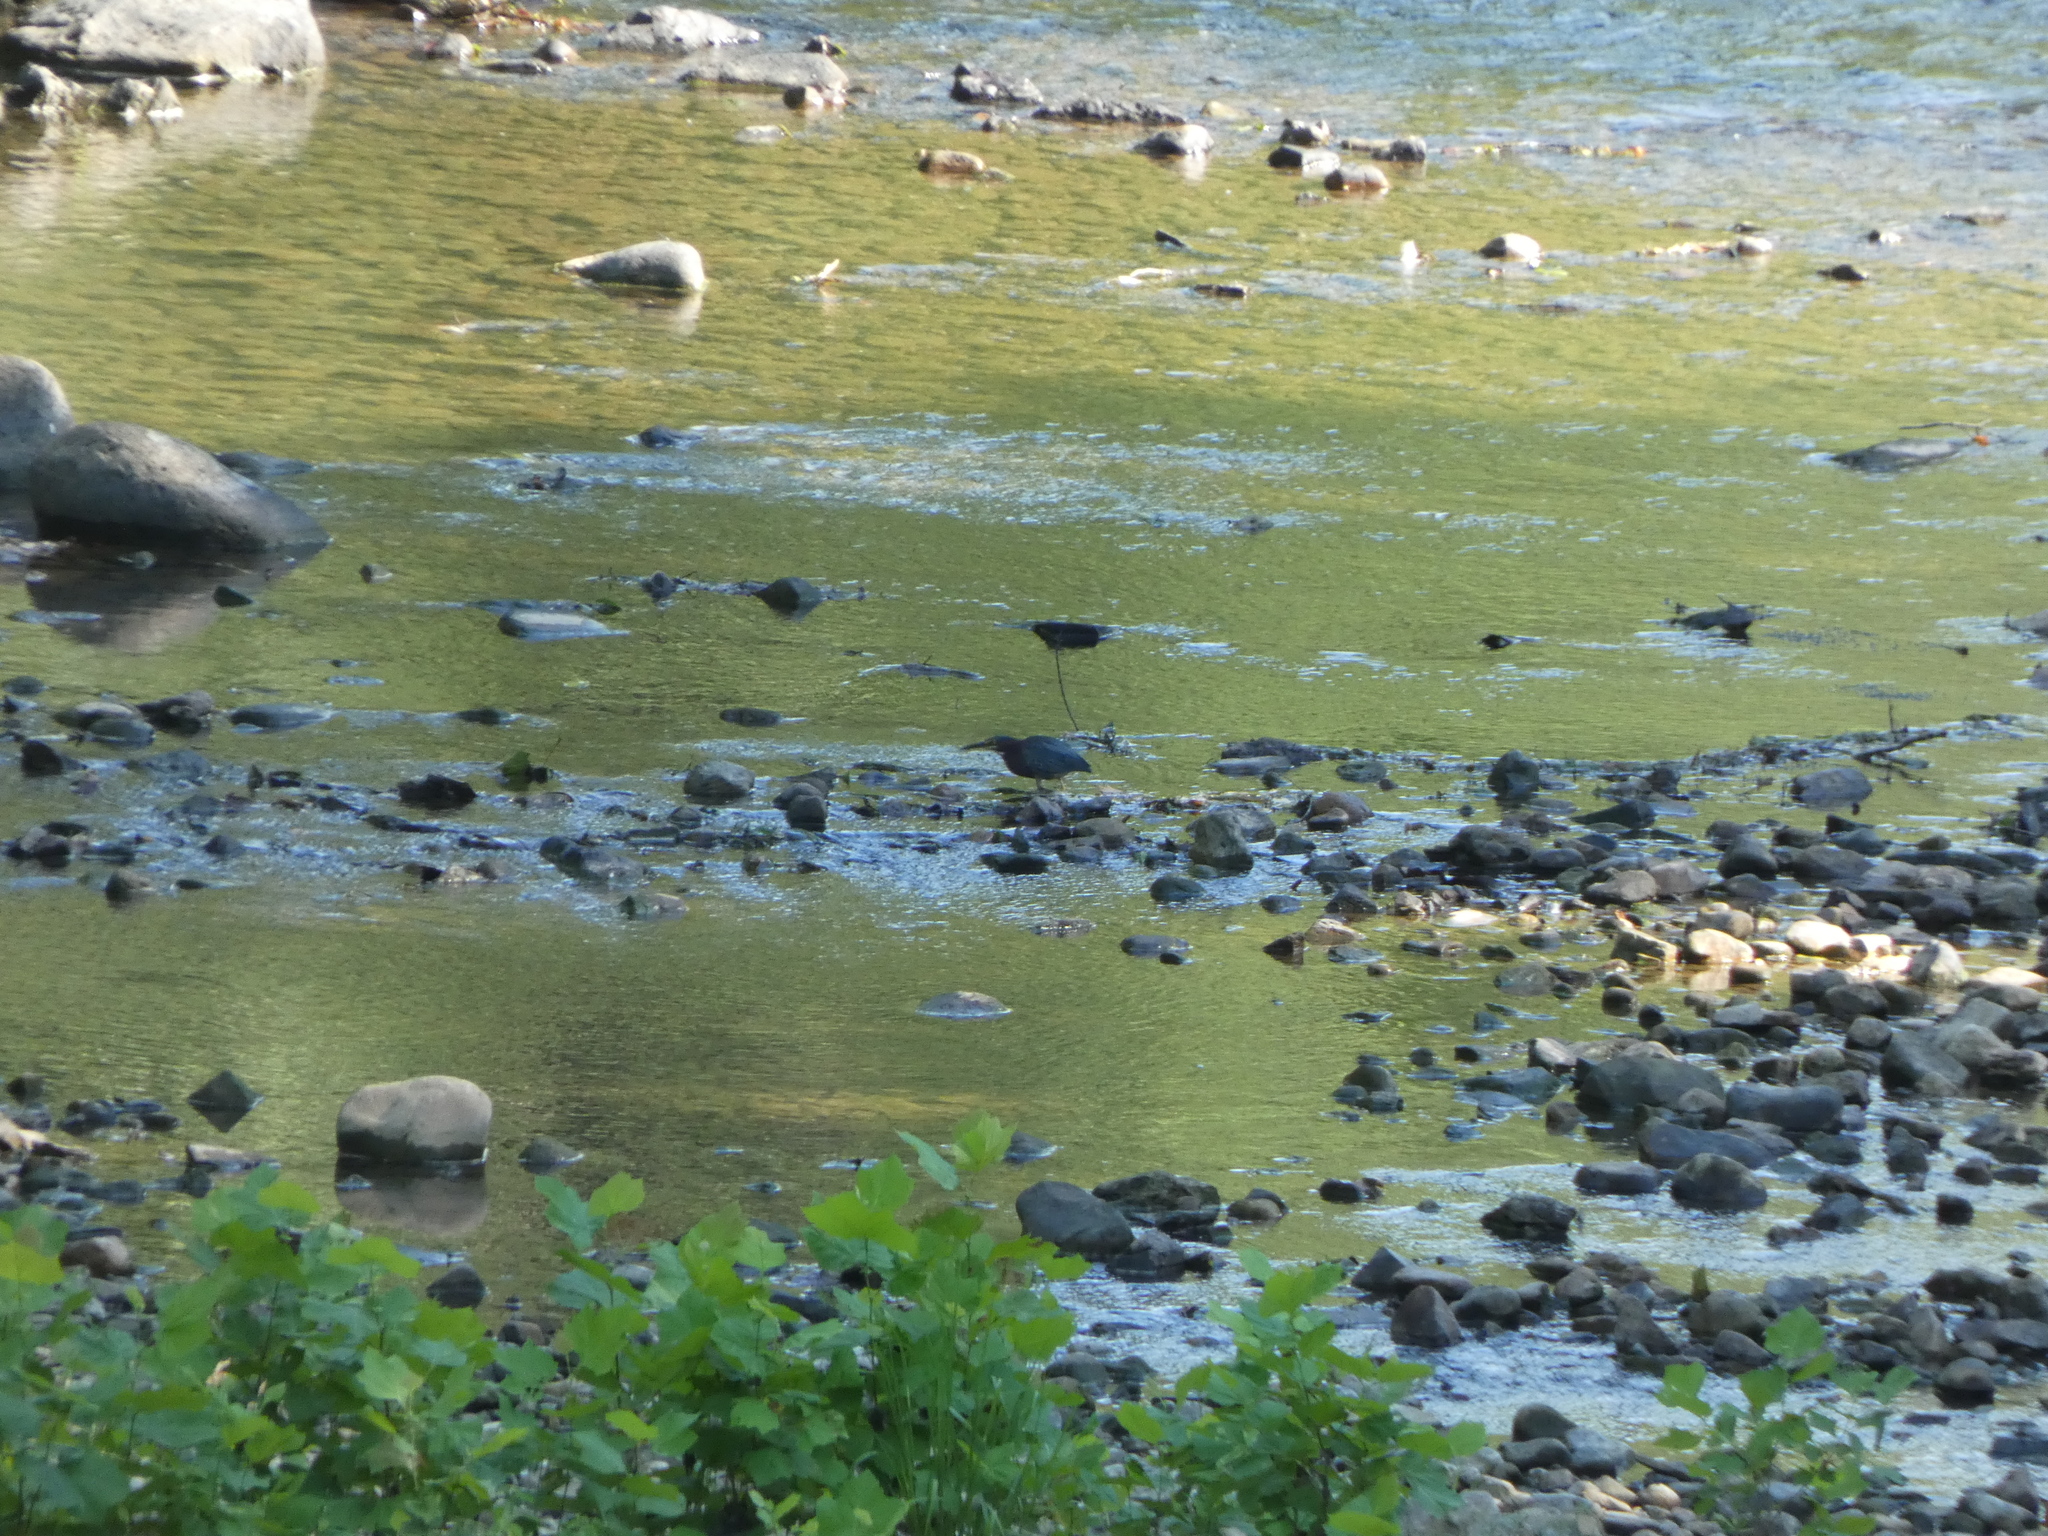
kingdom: Animalia
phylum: Chordata
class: Aves
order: Pelecaniformes
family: Ardeidae
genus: Butorides
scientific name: Butorides virescens
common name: Green heron
